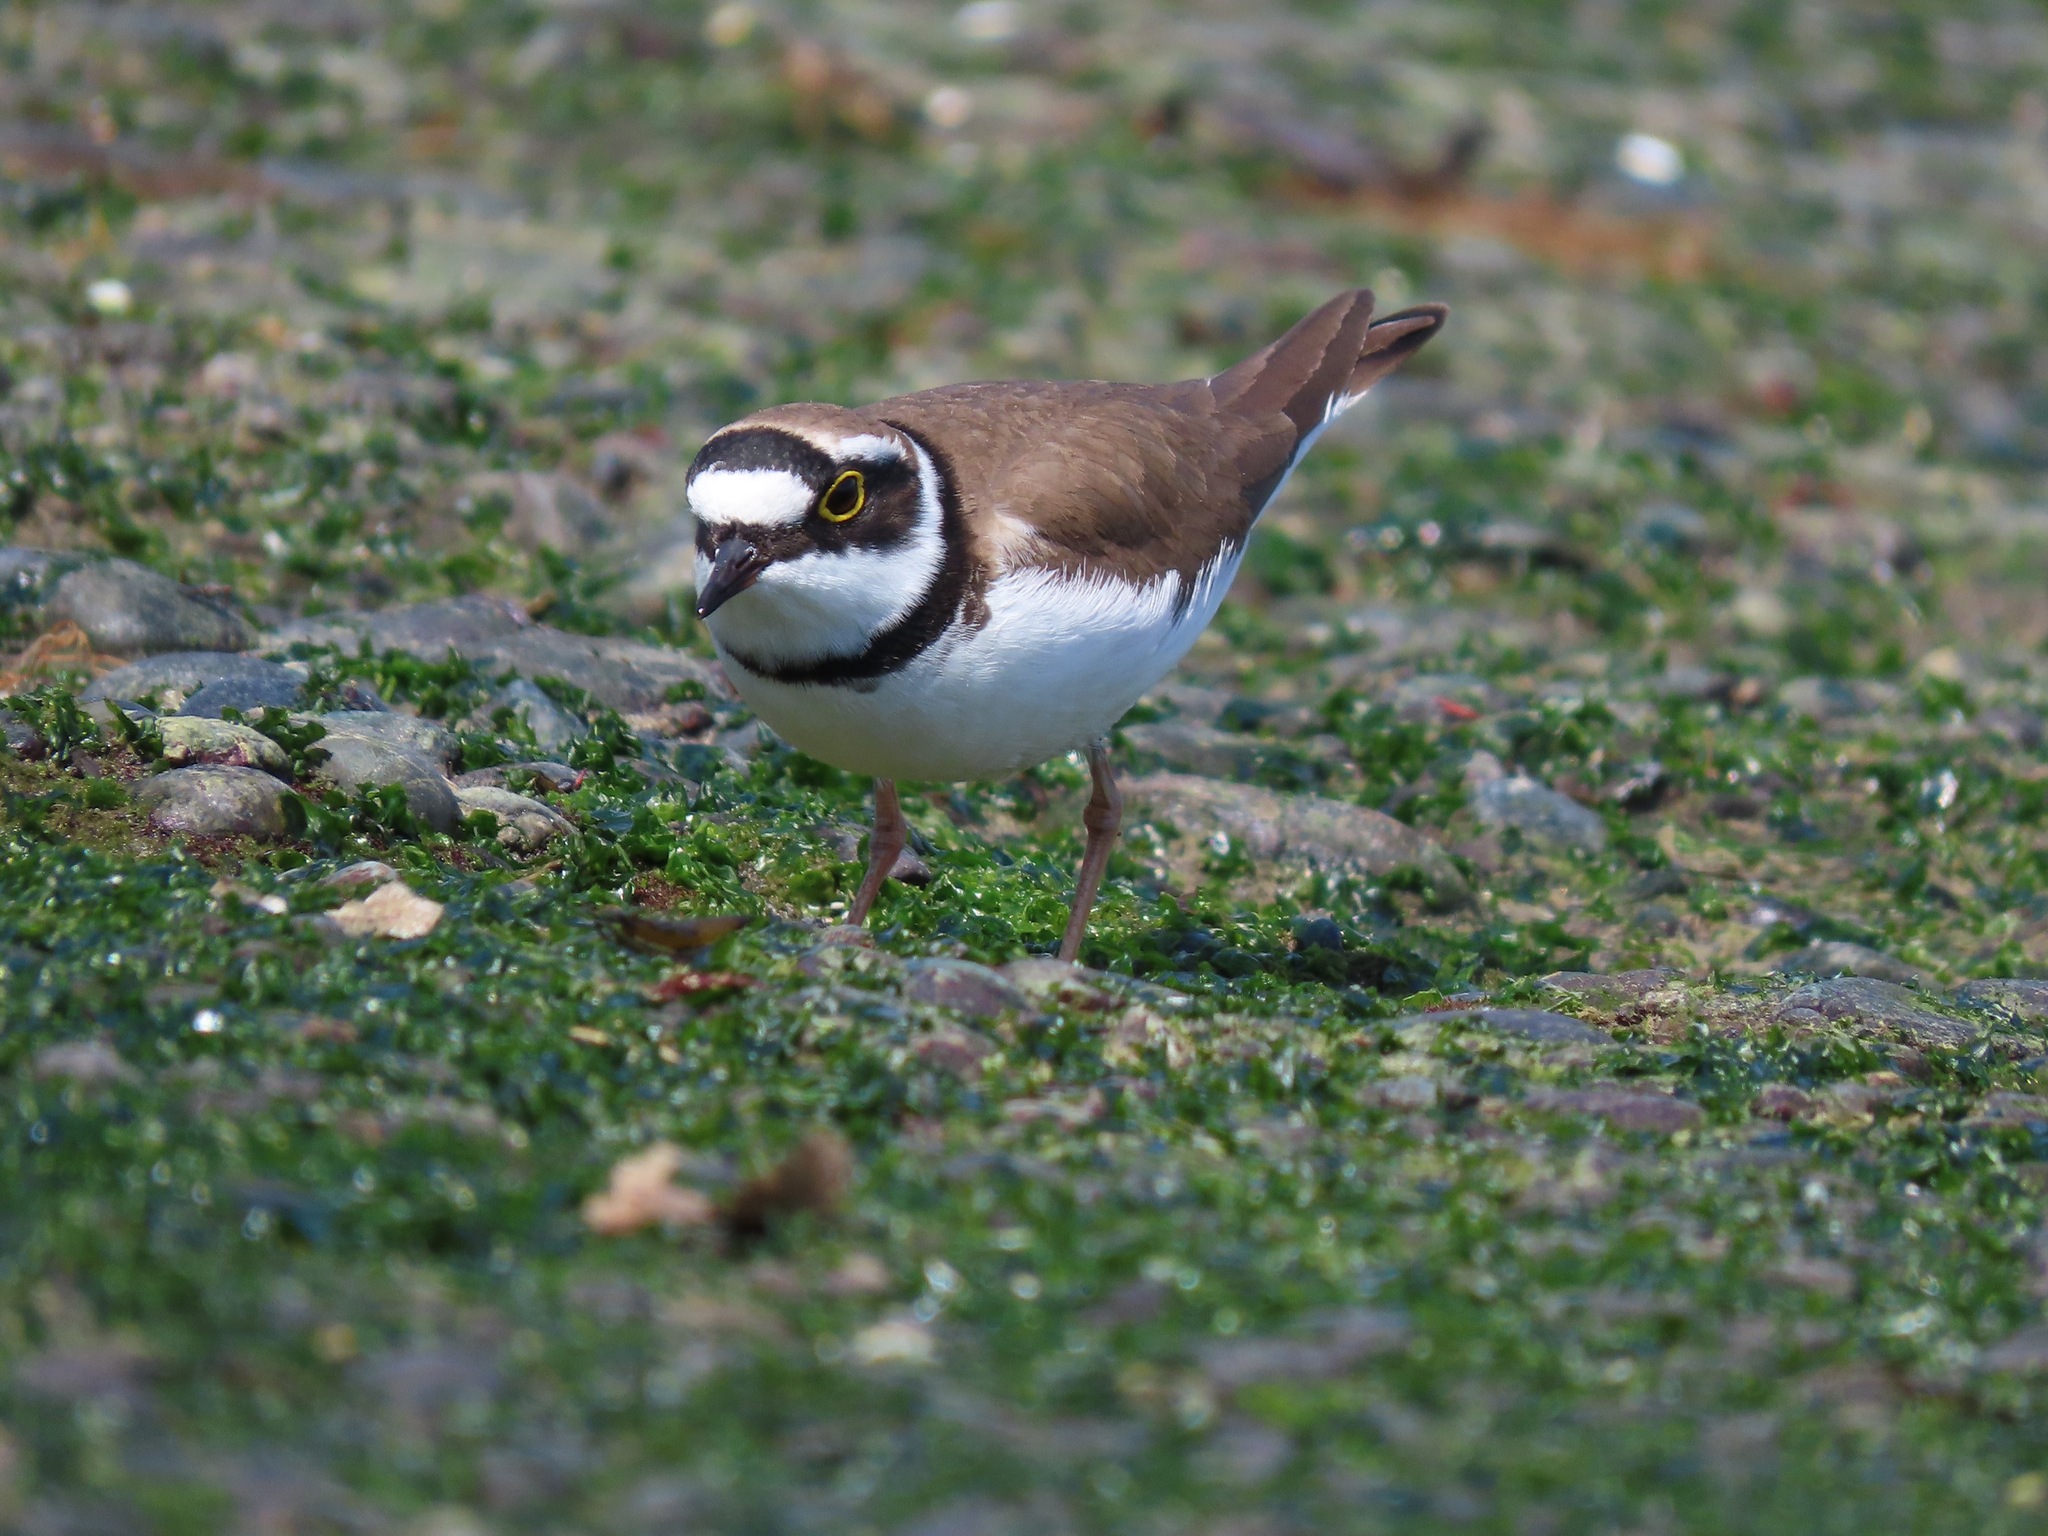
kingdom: Animalia
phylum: Chordata
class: Aves
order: Charadriiformes
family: Charadriidae
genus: Charadrius
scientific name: Charadrius dubius
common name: Little ringed plover
